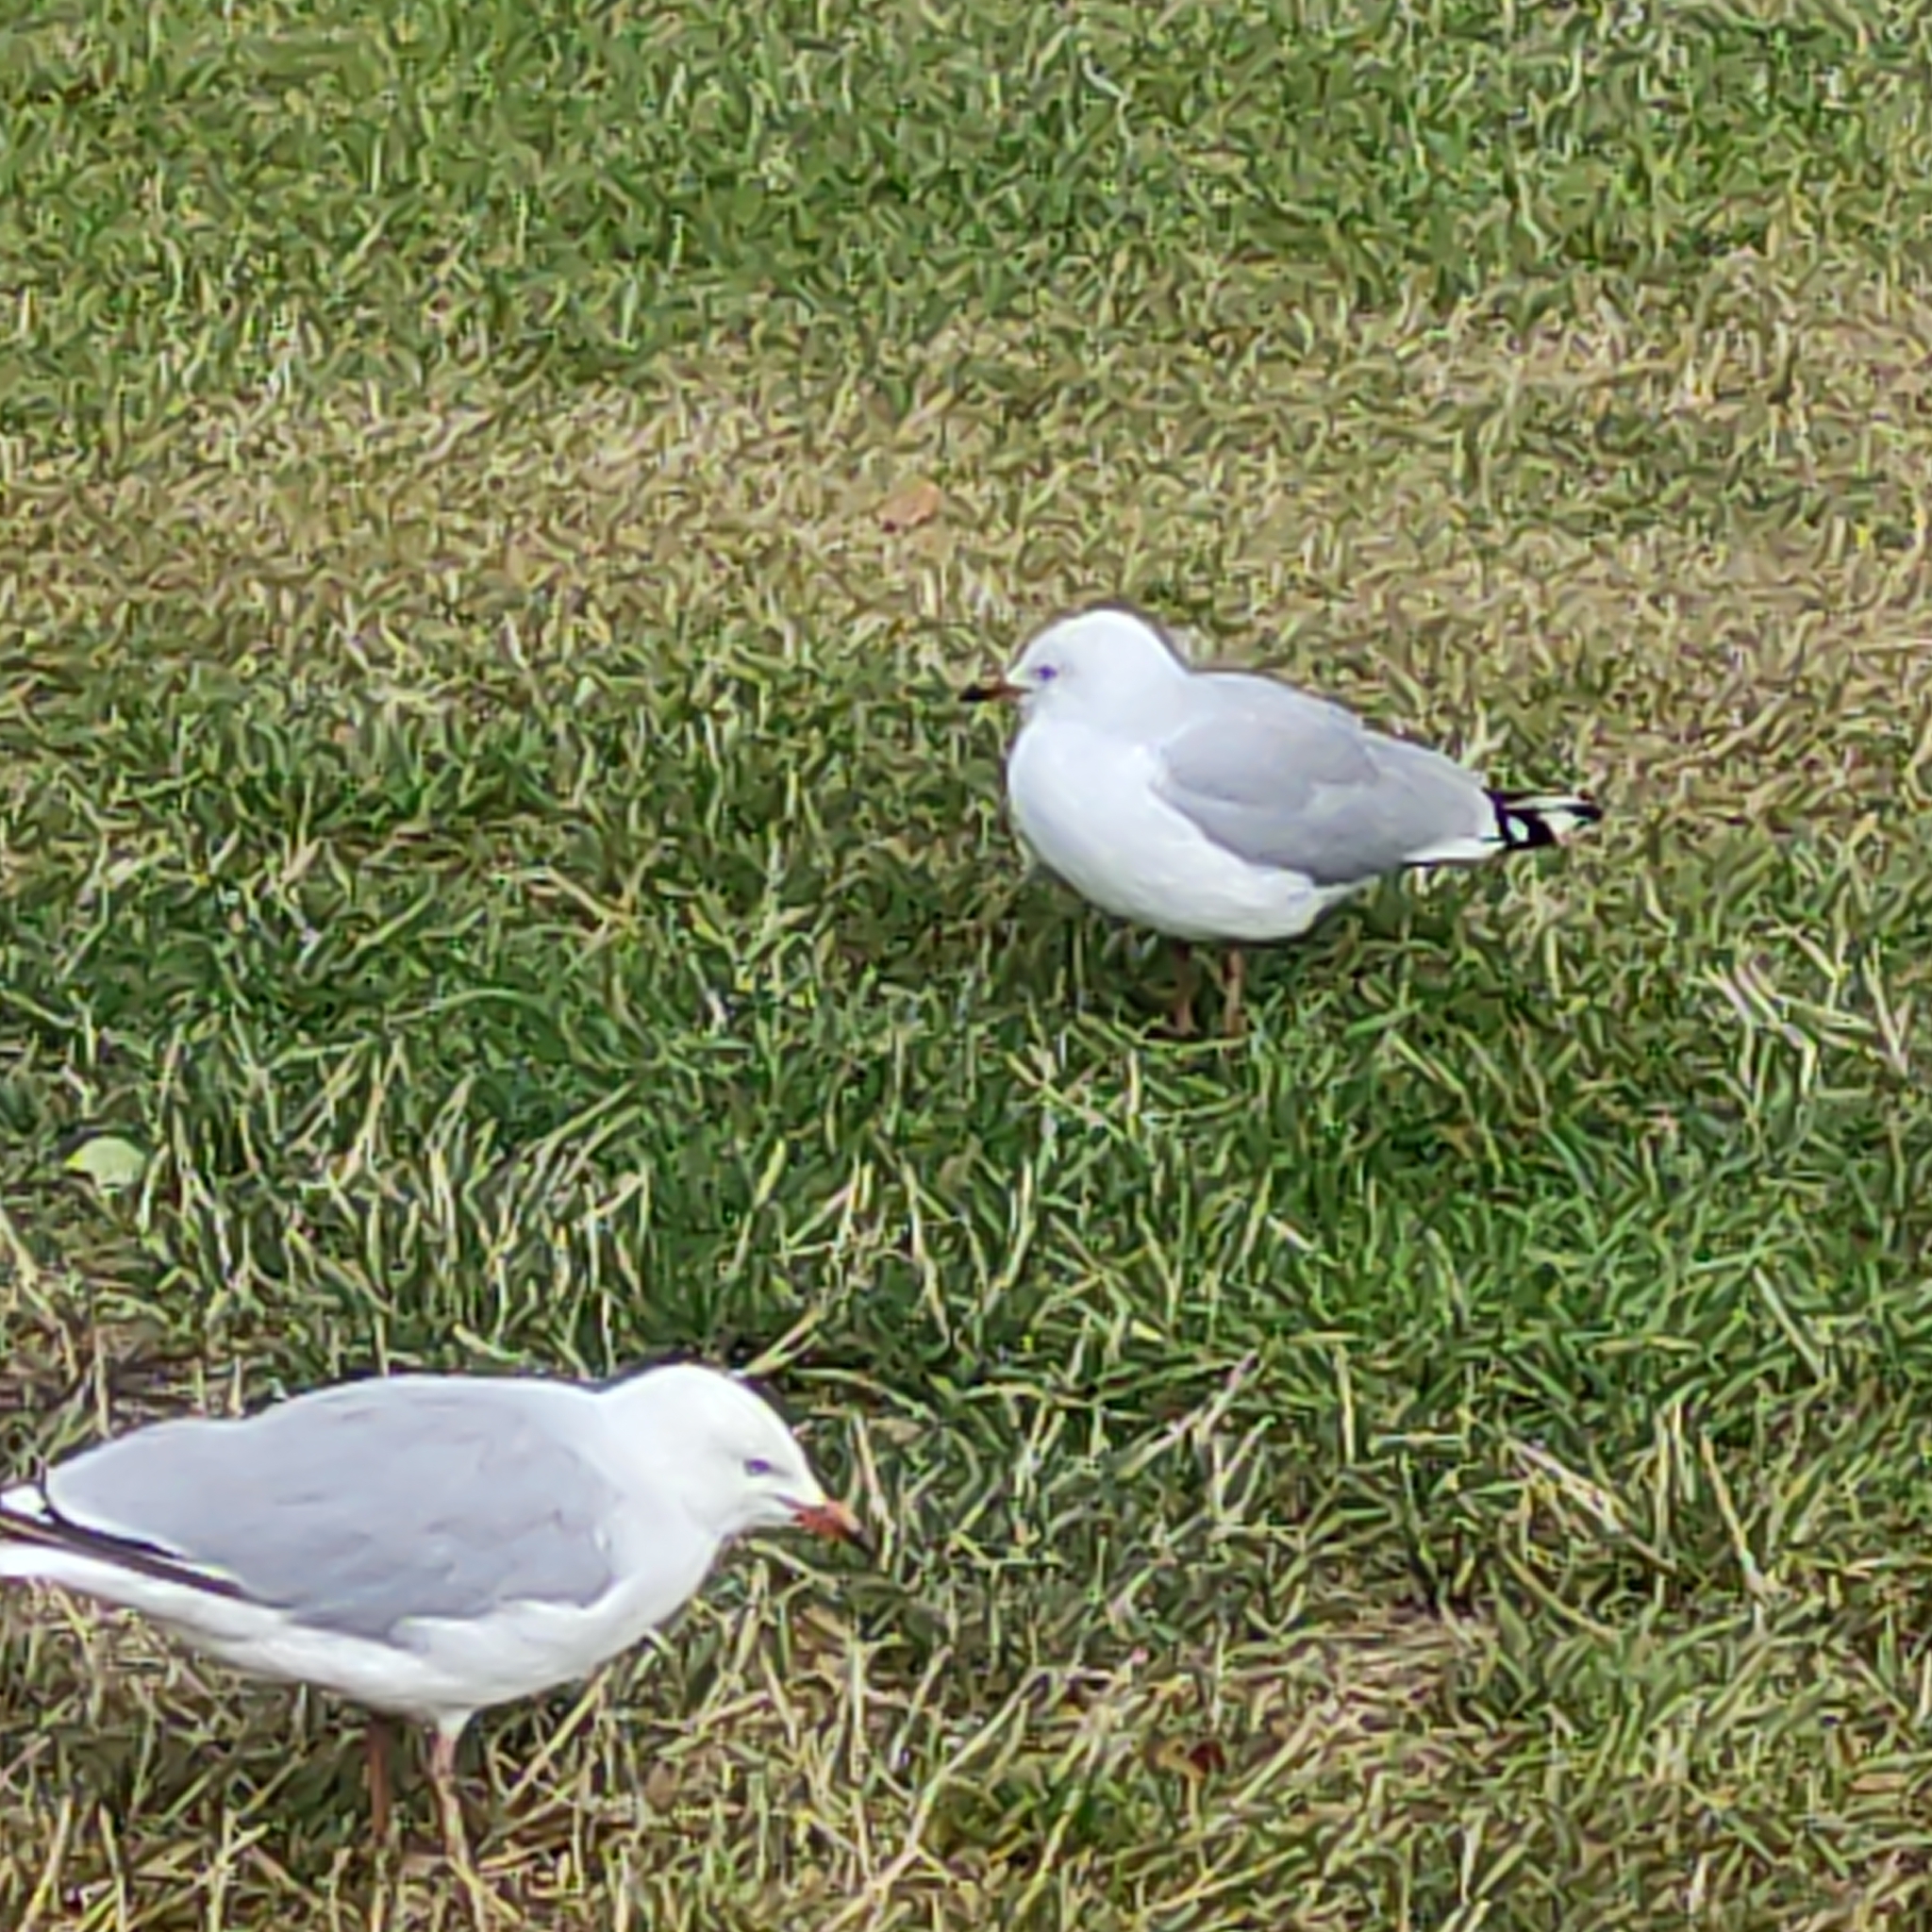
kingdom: Animalia
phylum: Chordata
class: Aves
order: Charadriiformes
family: Laridae
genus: Chroicocephalus
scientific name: Chroicocephalus novaehollandiae
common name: Silver gull
